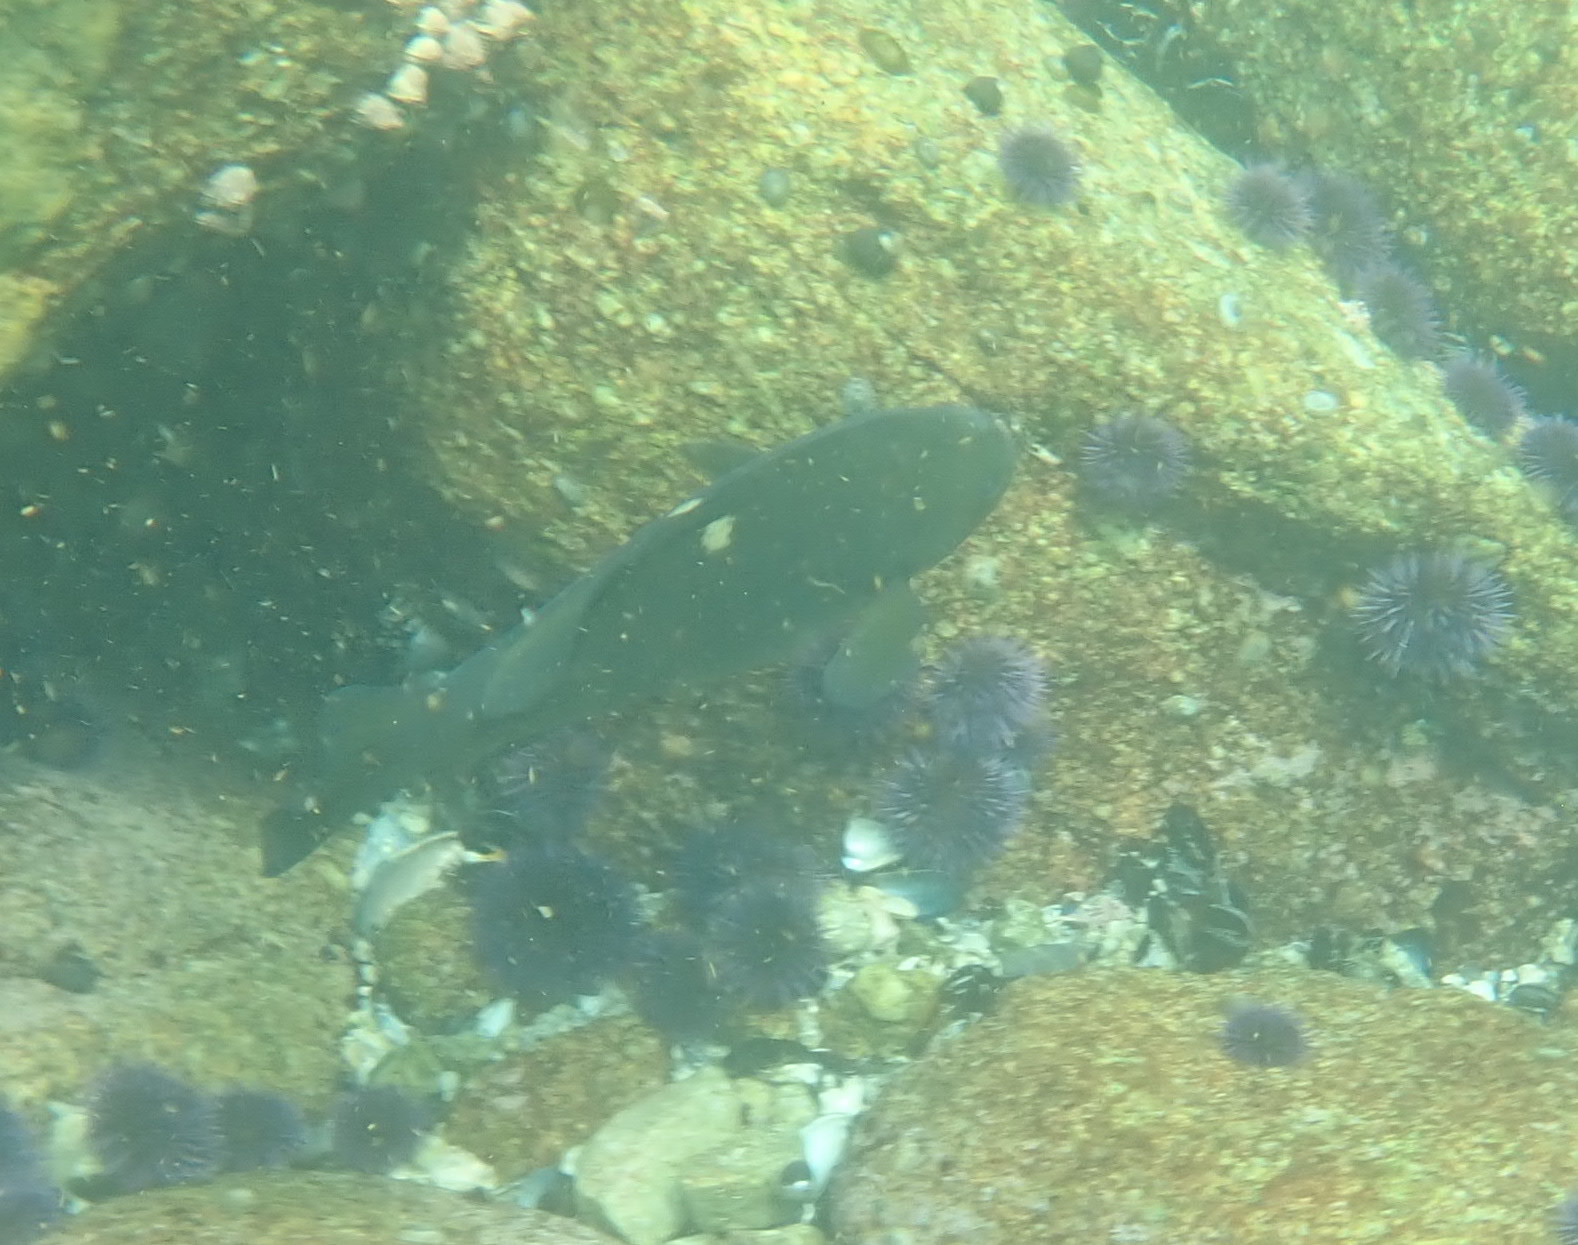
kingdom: Animalia
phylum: Chordata
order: Perciformes
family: Kyphosidae
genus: Girella
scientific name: Girella nigricans
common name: Opaleye
